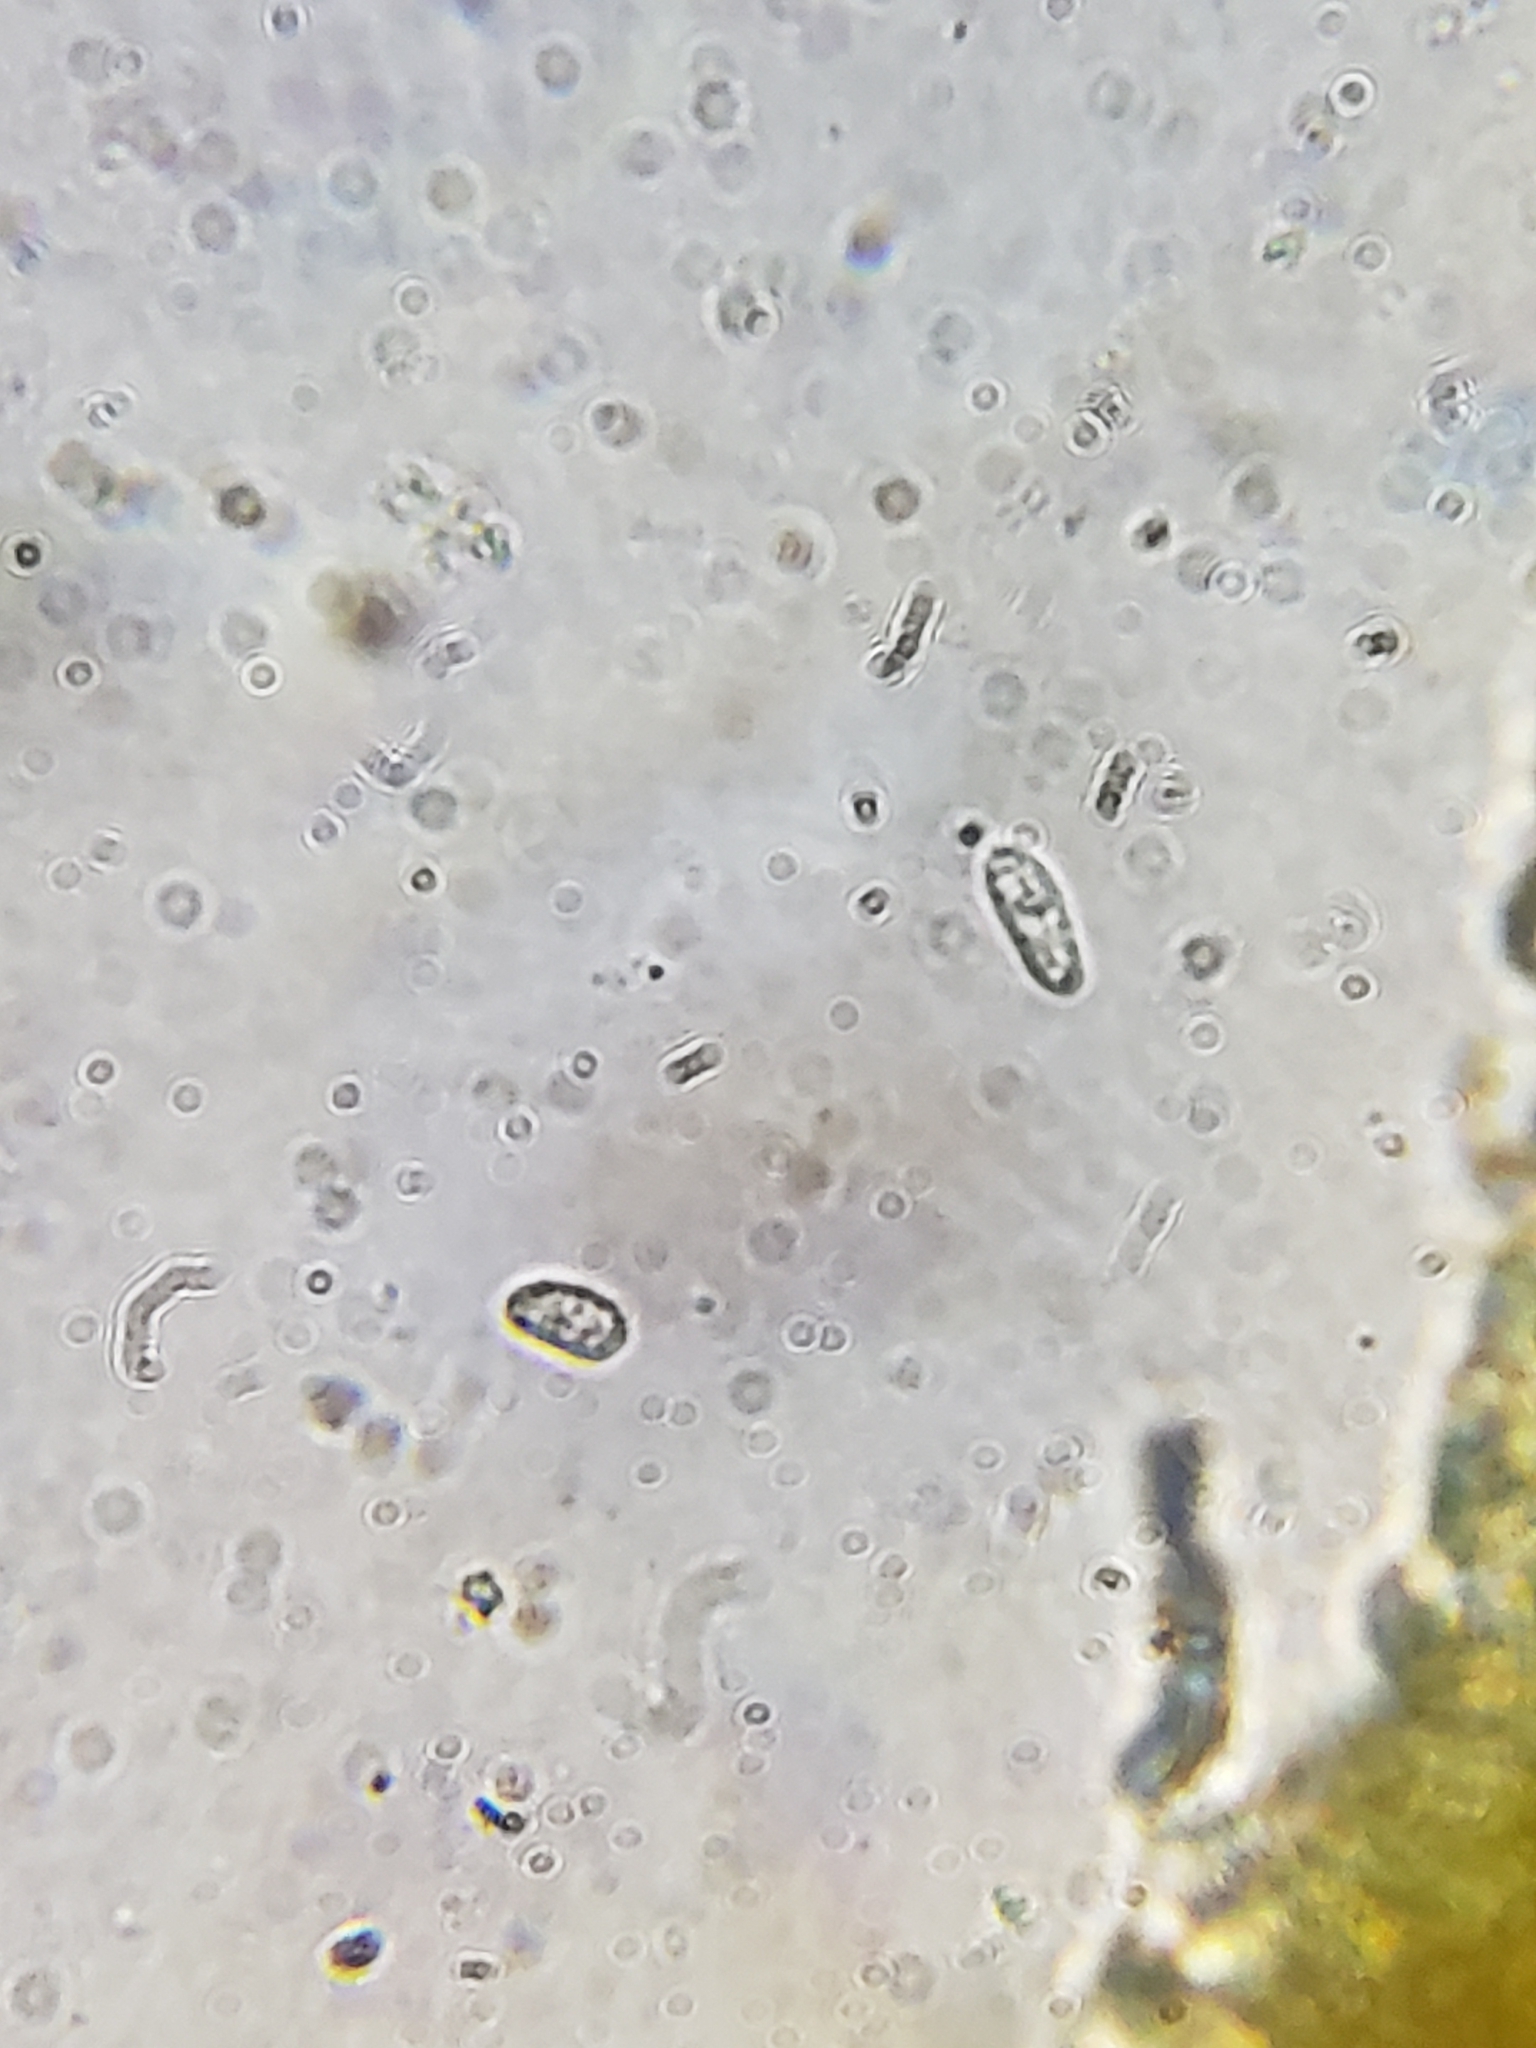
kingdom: Fungi
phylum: Ascomycota
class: Leotiomycetes
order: Helotiales
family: Erysiphaceae
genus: Erysiphe
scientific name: Erysiphe flexuosa
